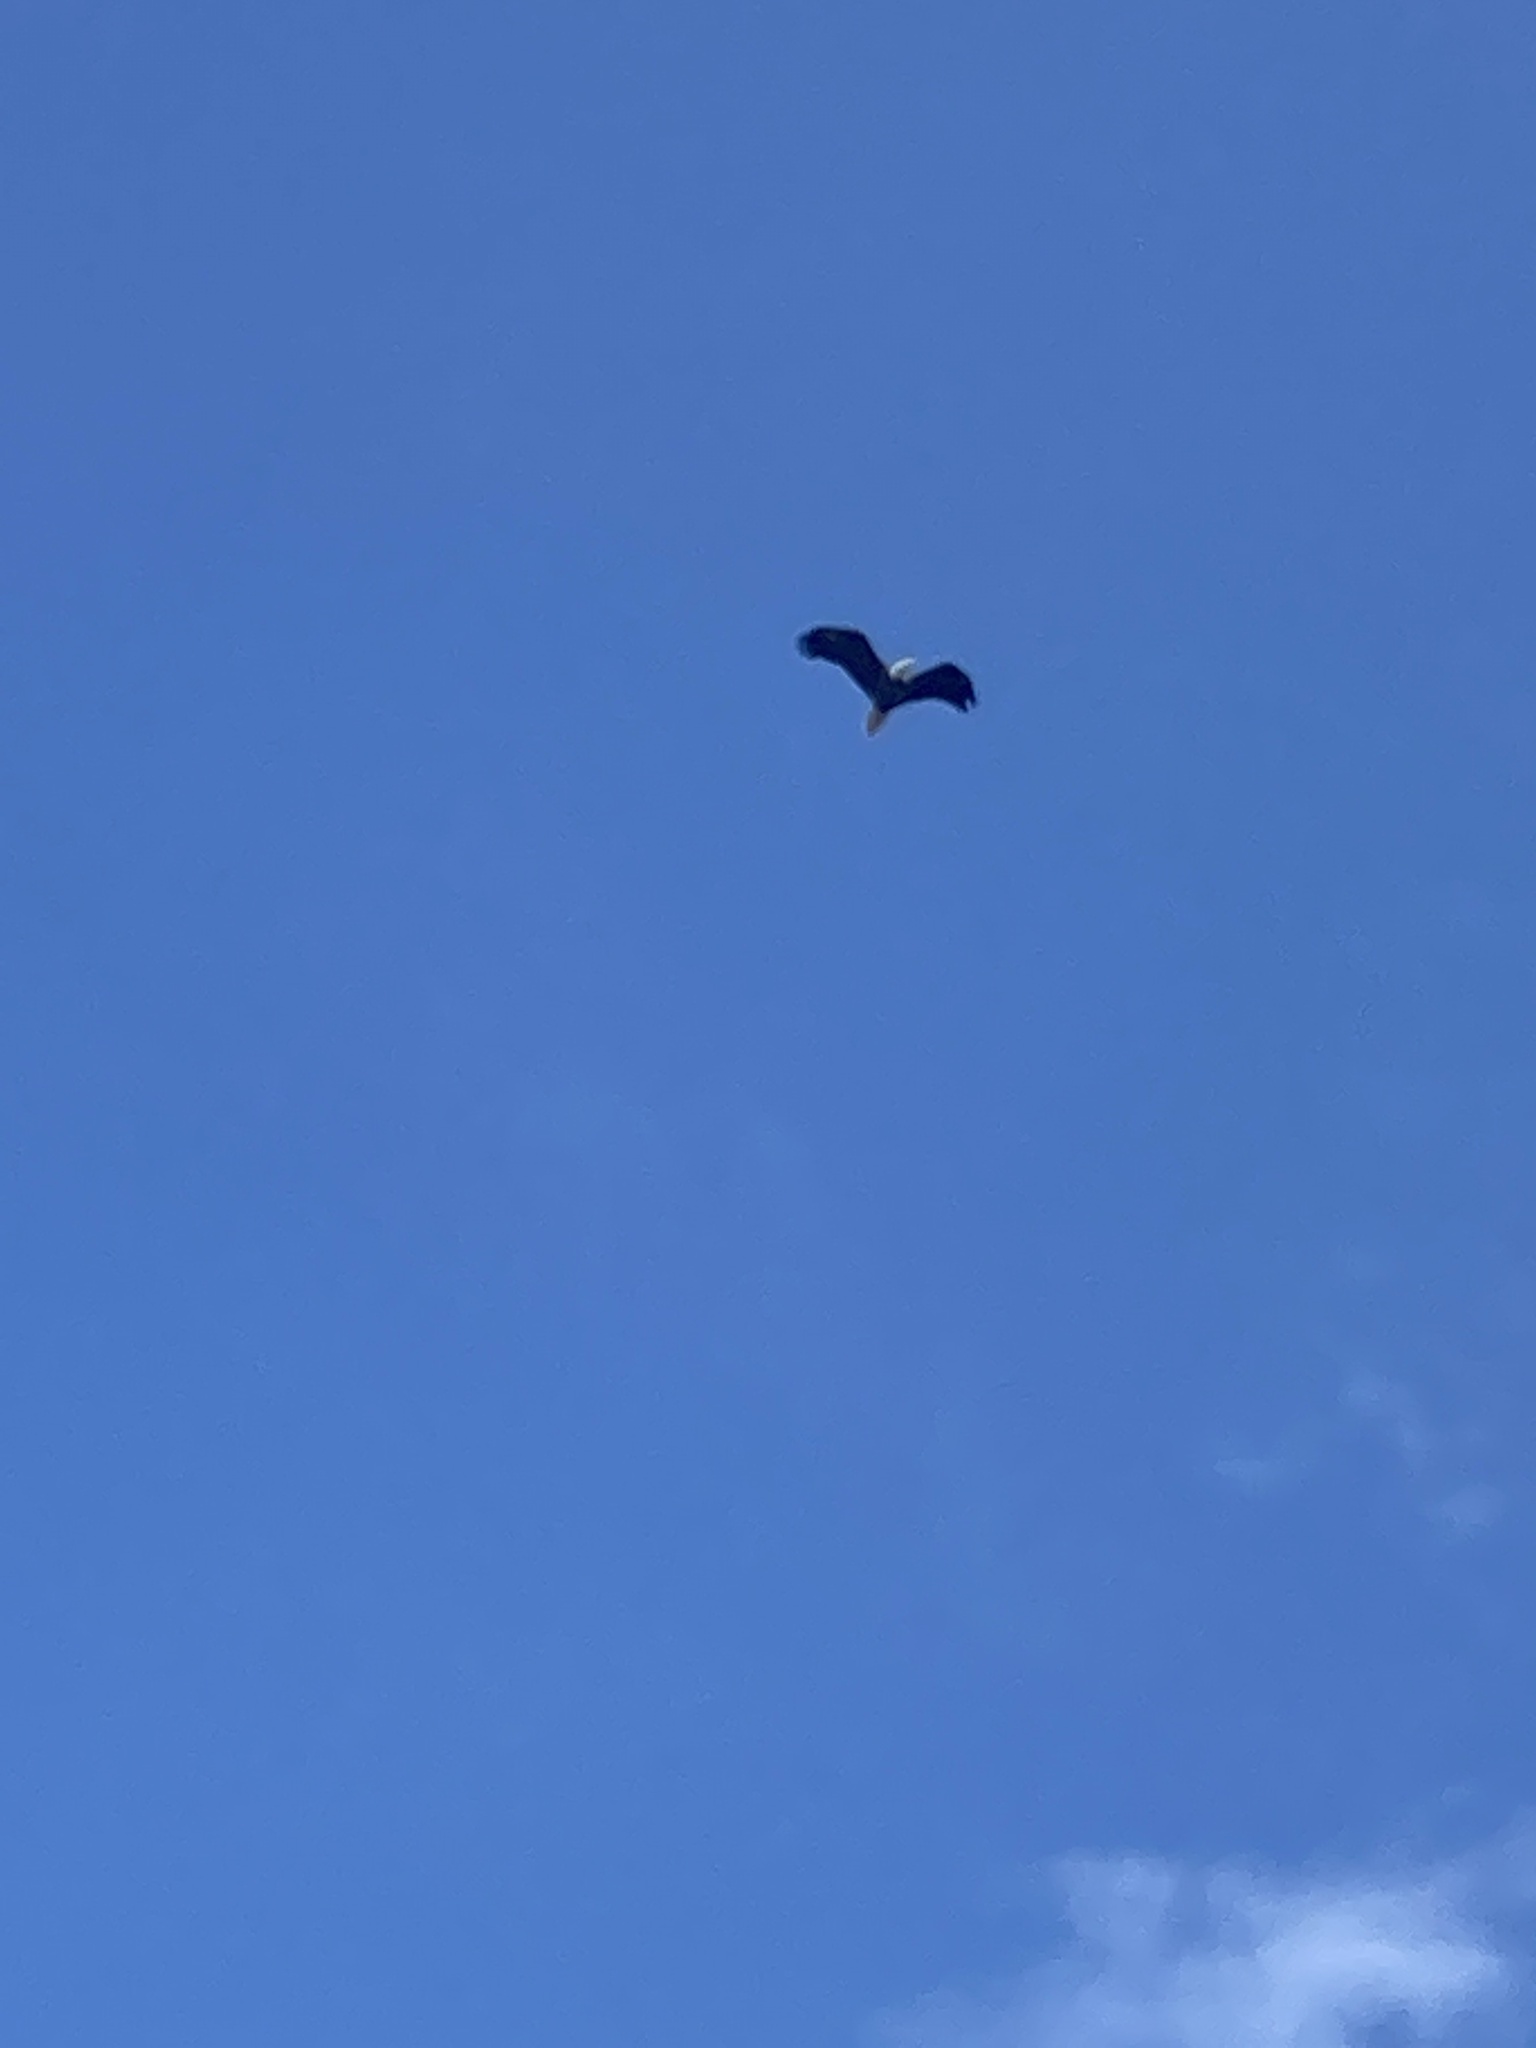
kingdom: Animalia
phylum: Chordata
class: Aves
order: Accipitriformes
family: Accipitridae
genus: Haliaeetus
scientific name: Haliaeetus leucocephalus
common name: Bald eagle
